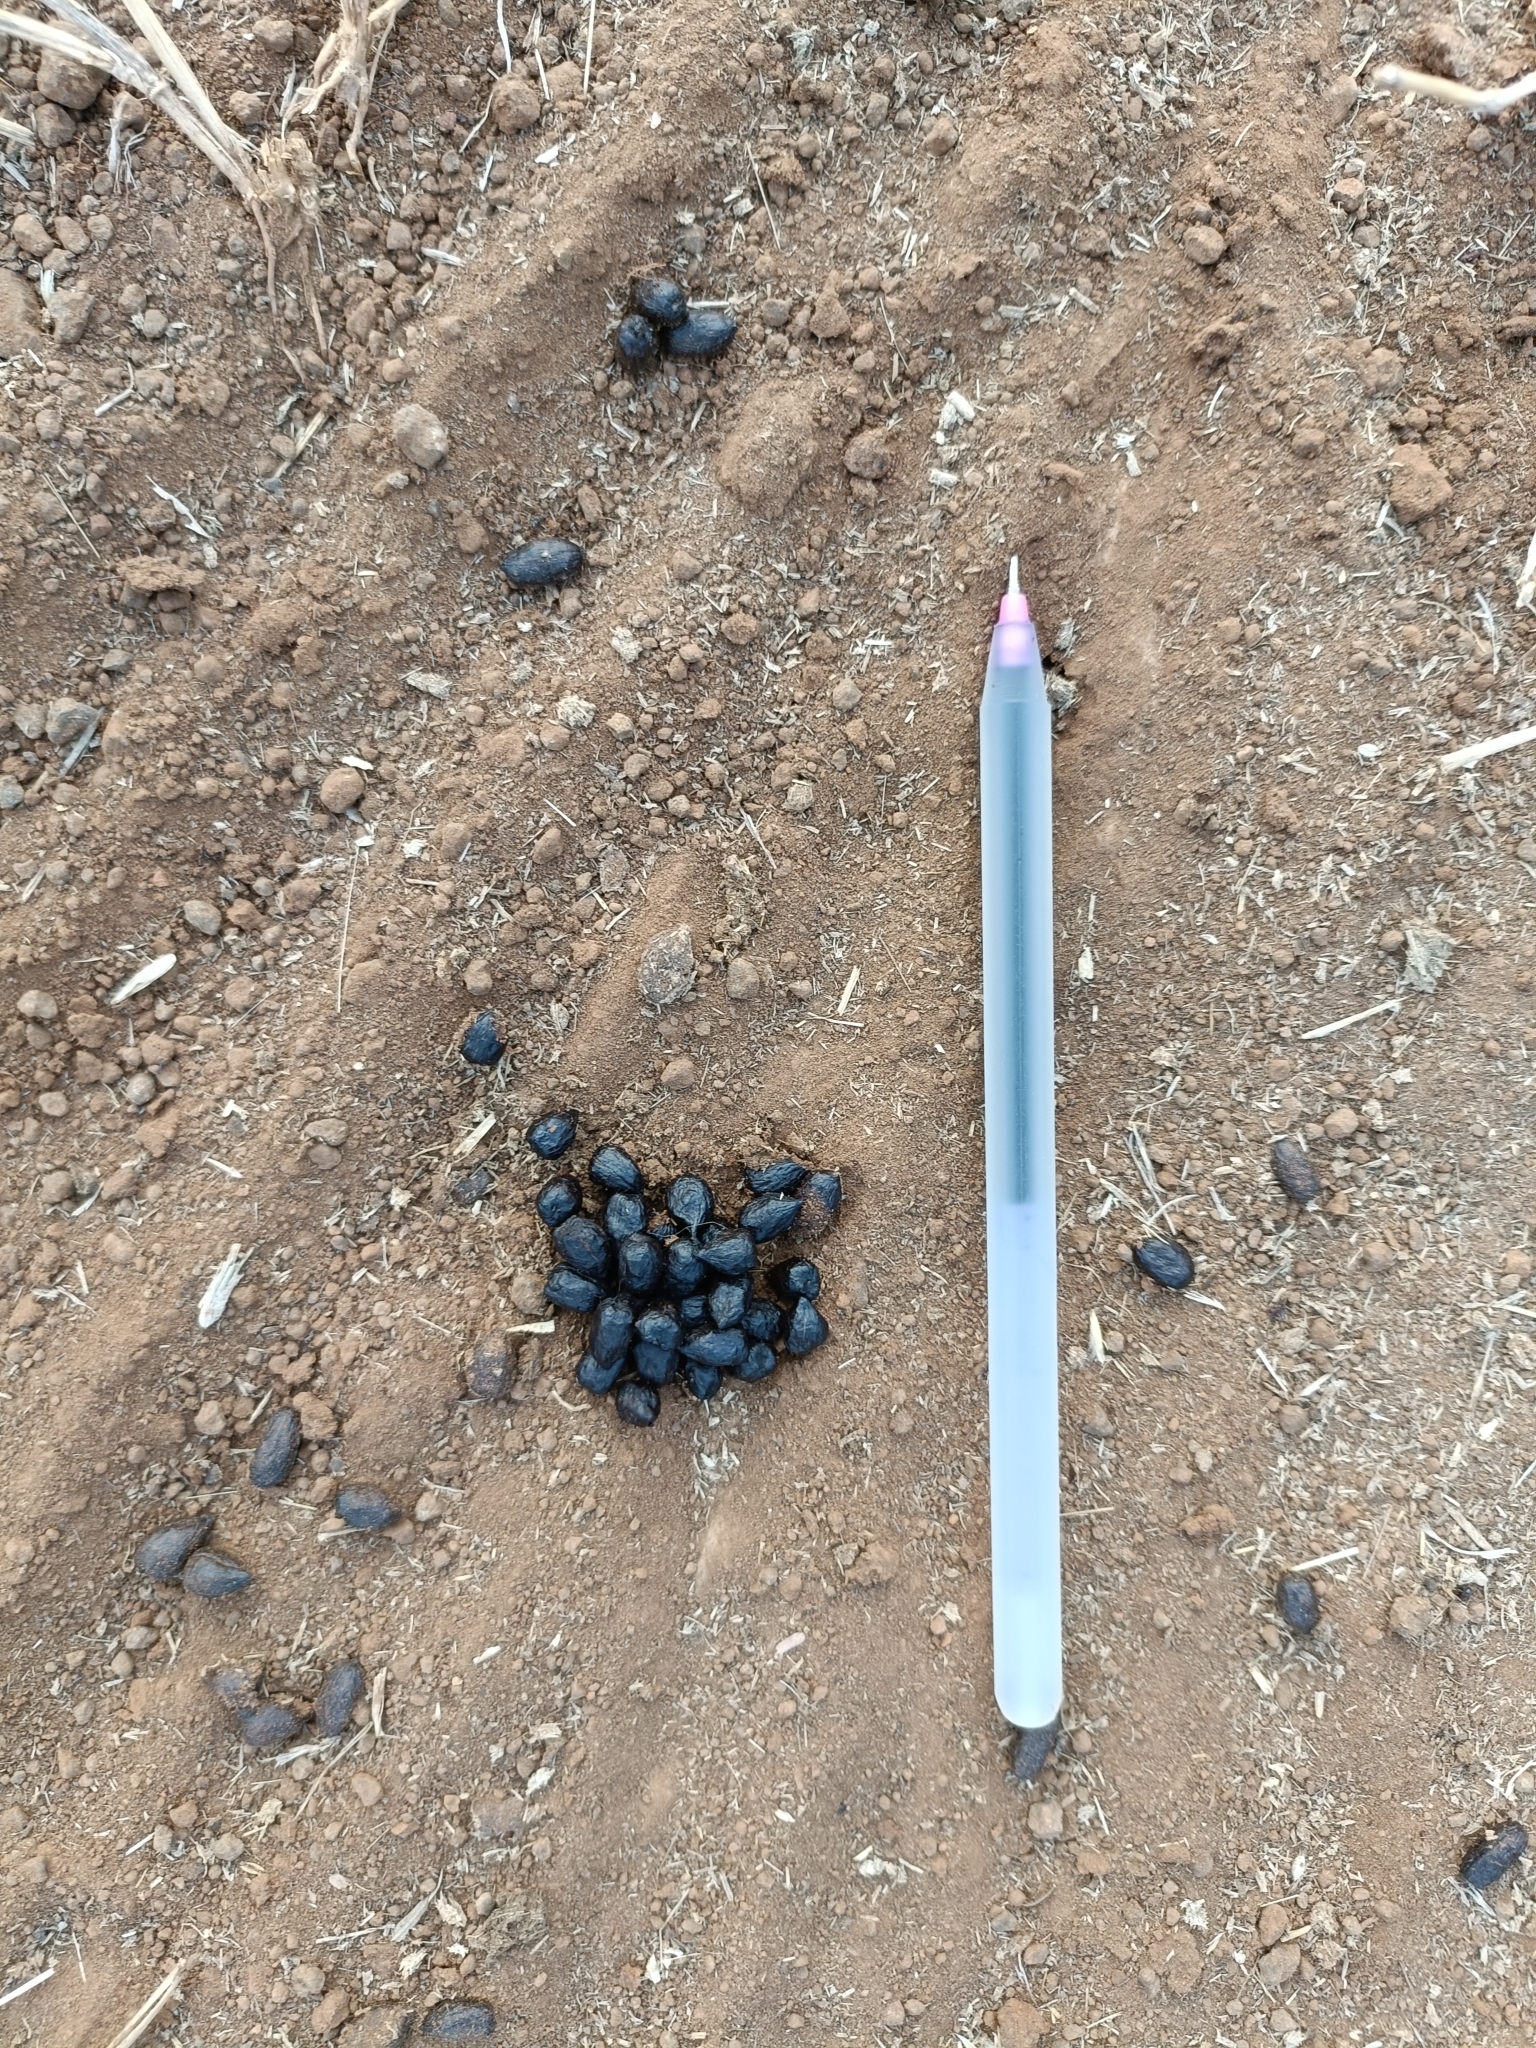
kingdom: Animalia
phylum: Chordata
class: Mammalia
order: Artiodactyla
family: Bovidae
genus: Gazella
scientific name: Gazella bennettii
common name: Indian gazelle
